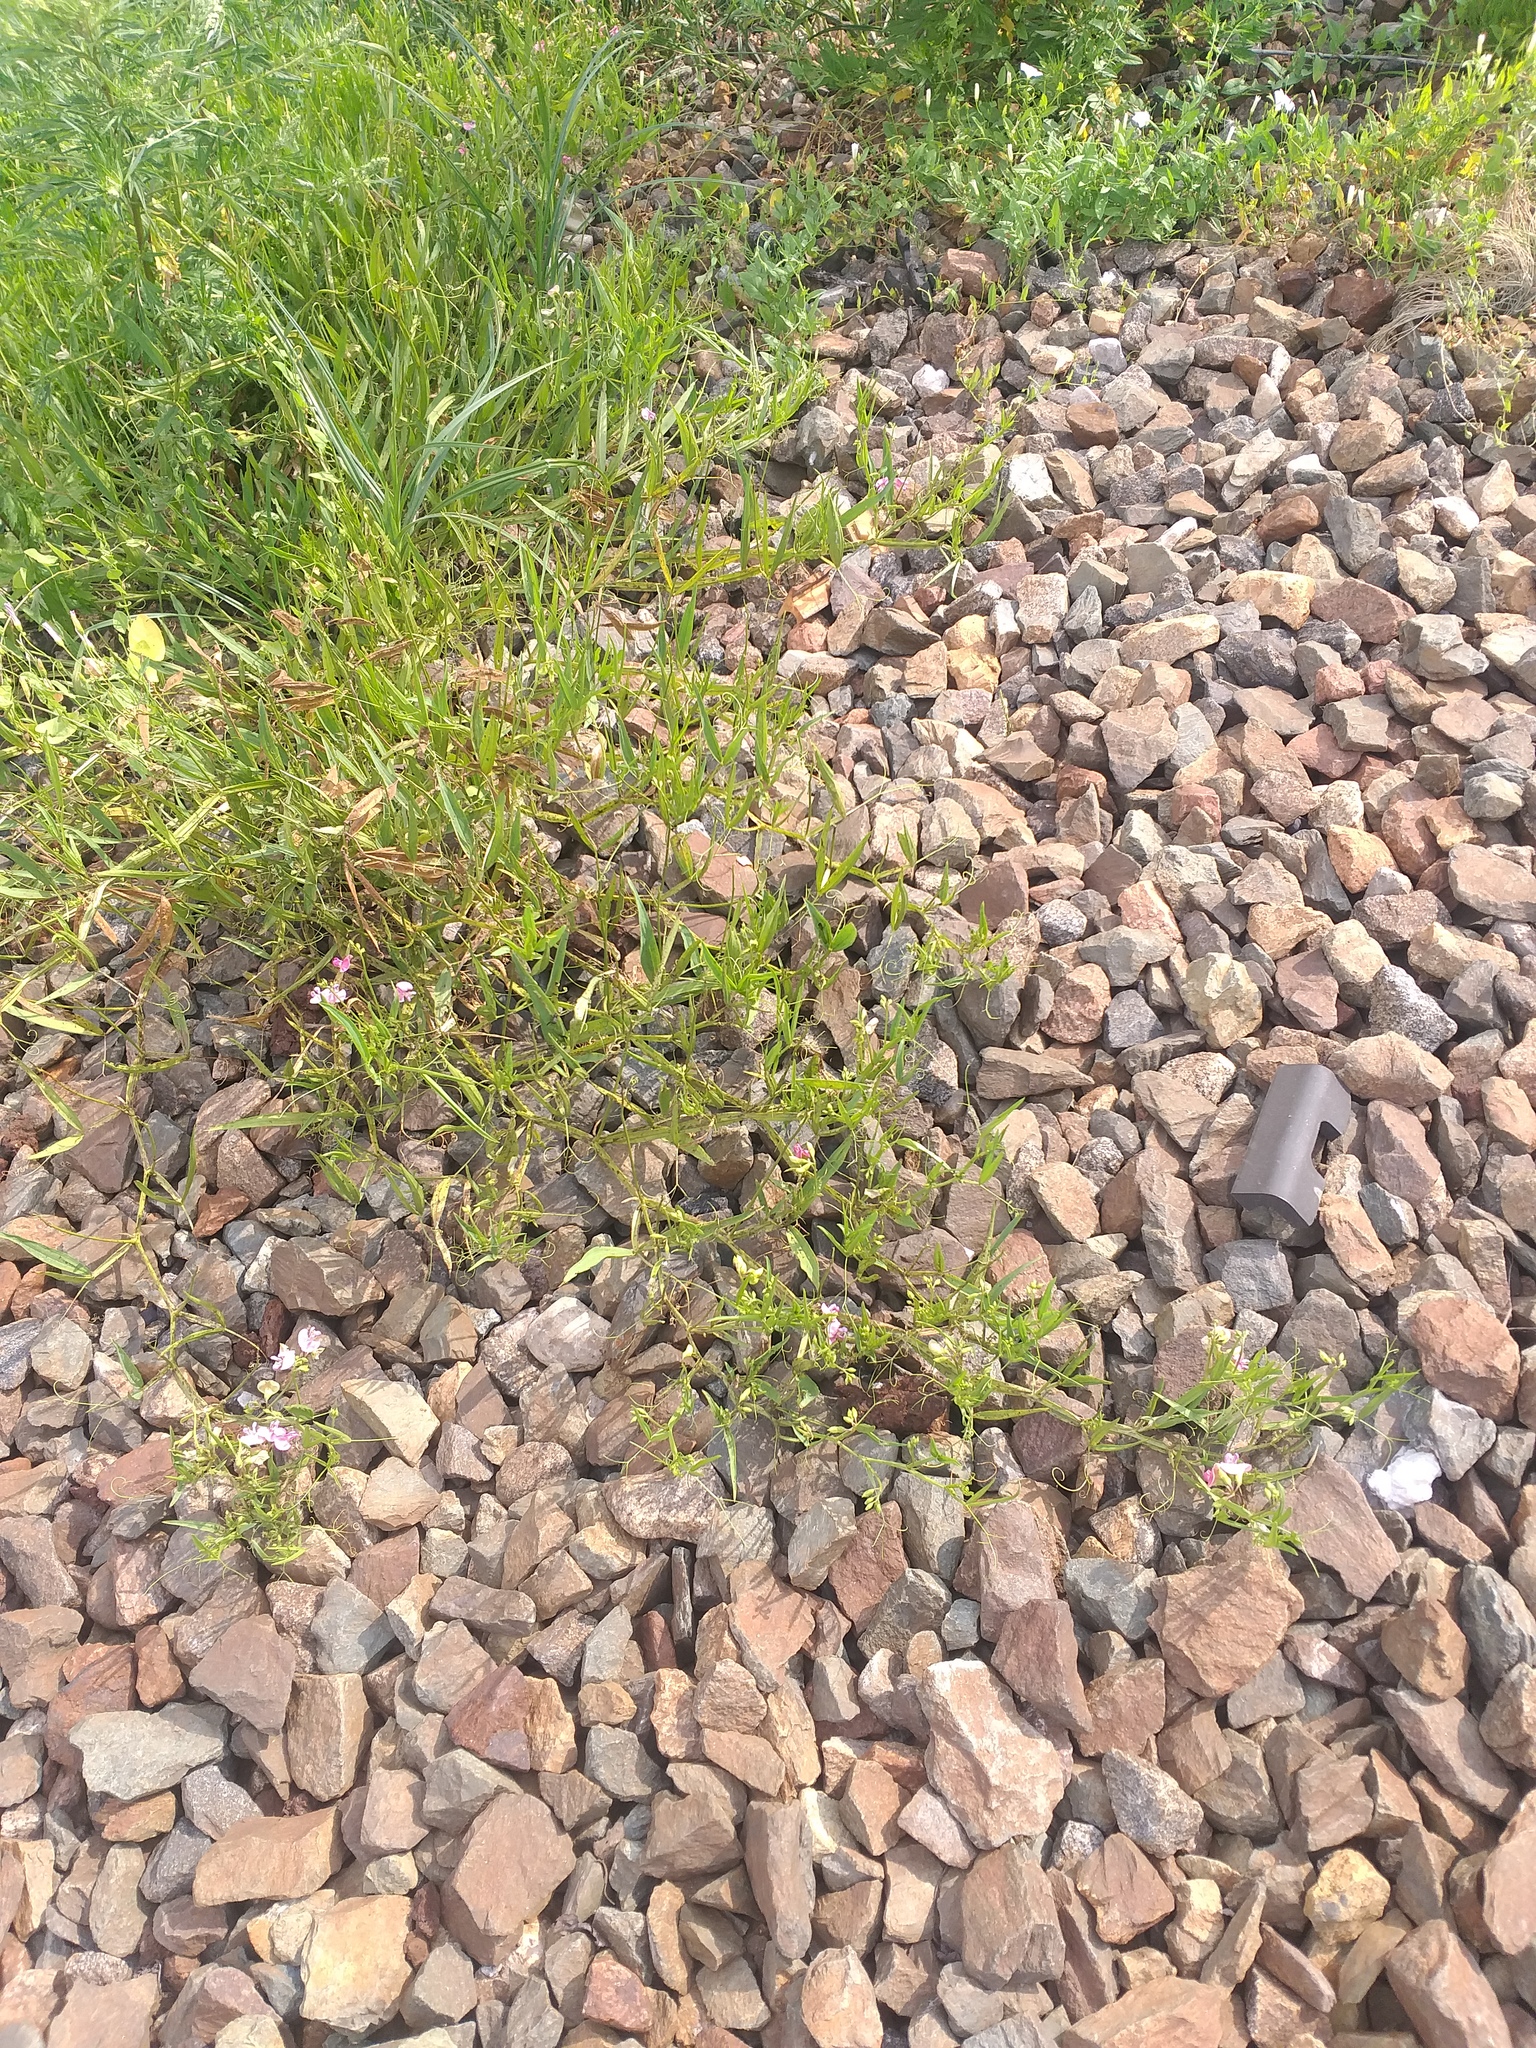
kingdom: Plantae
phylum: Tracheophyta
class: Magnoliopsida
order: Fabales
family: Fabaceae
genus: Lathyrus
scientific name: Lathyrus sylvestris
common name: Flat pea
